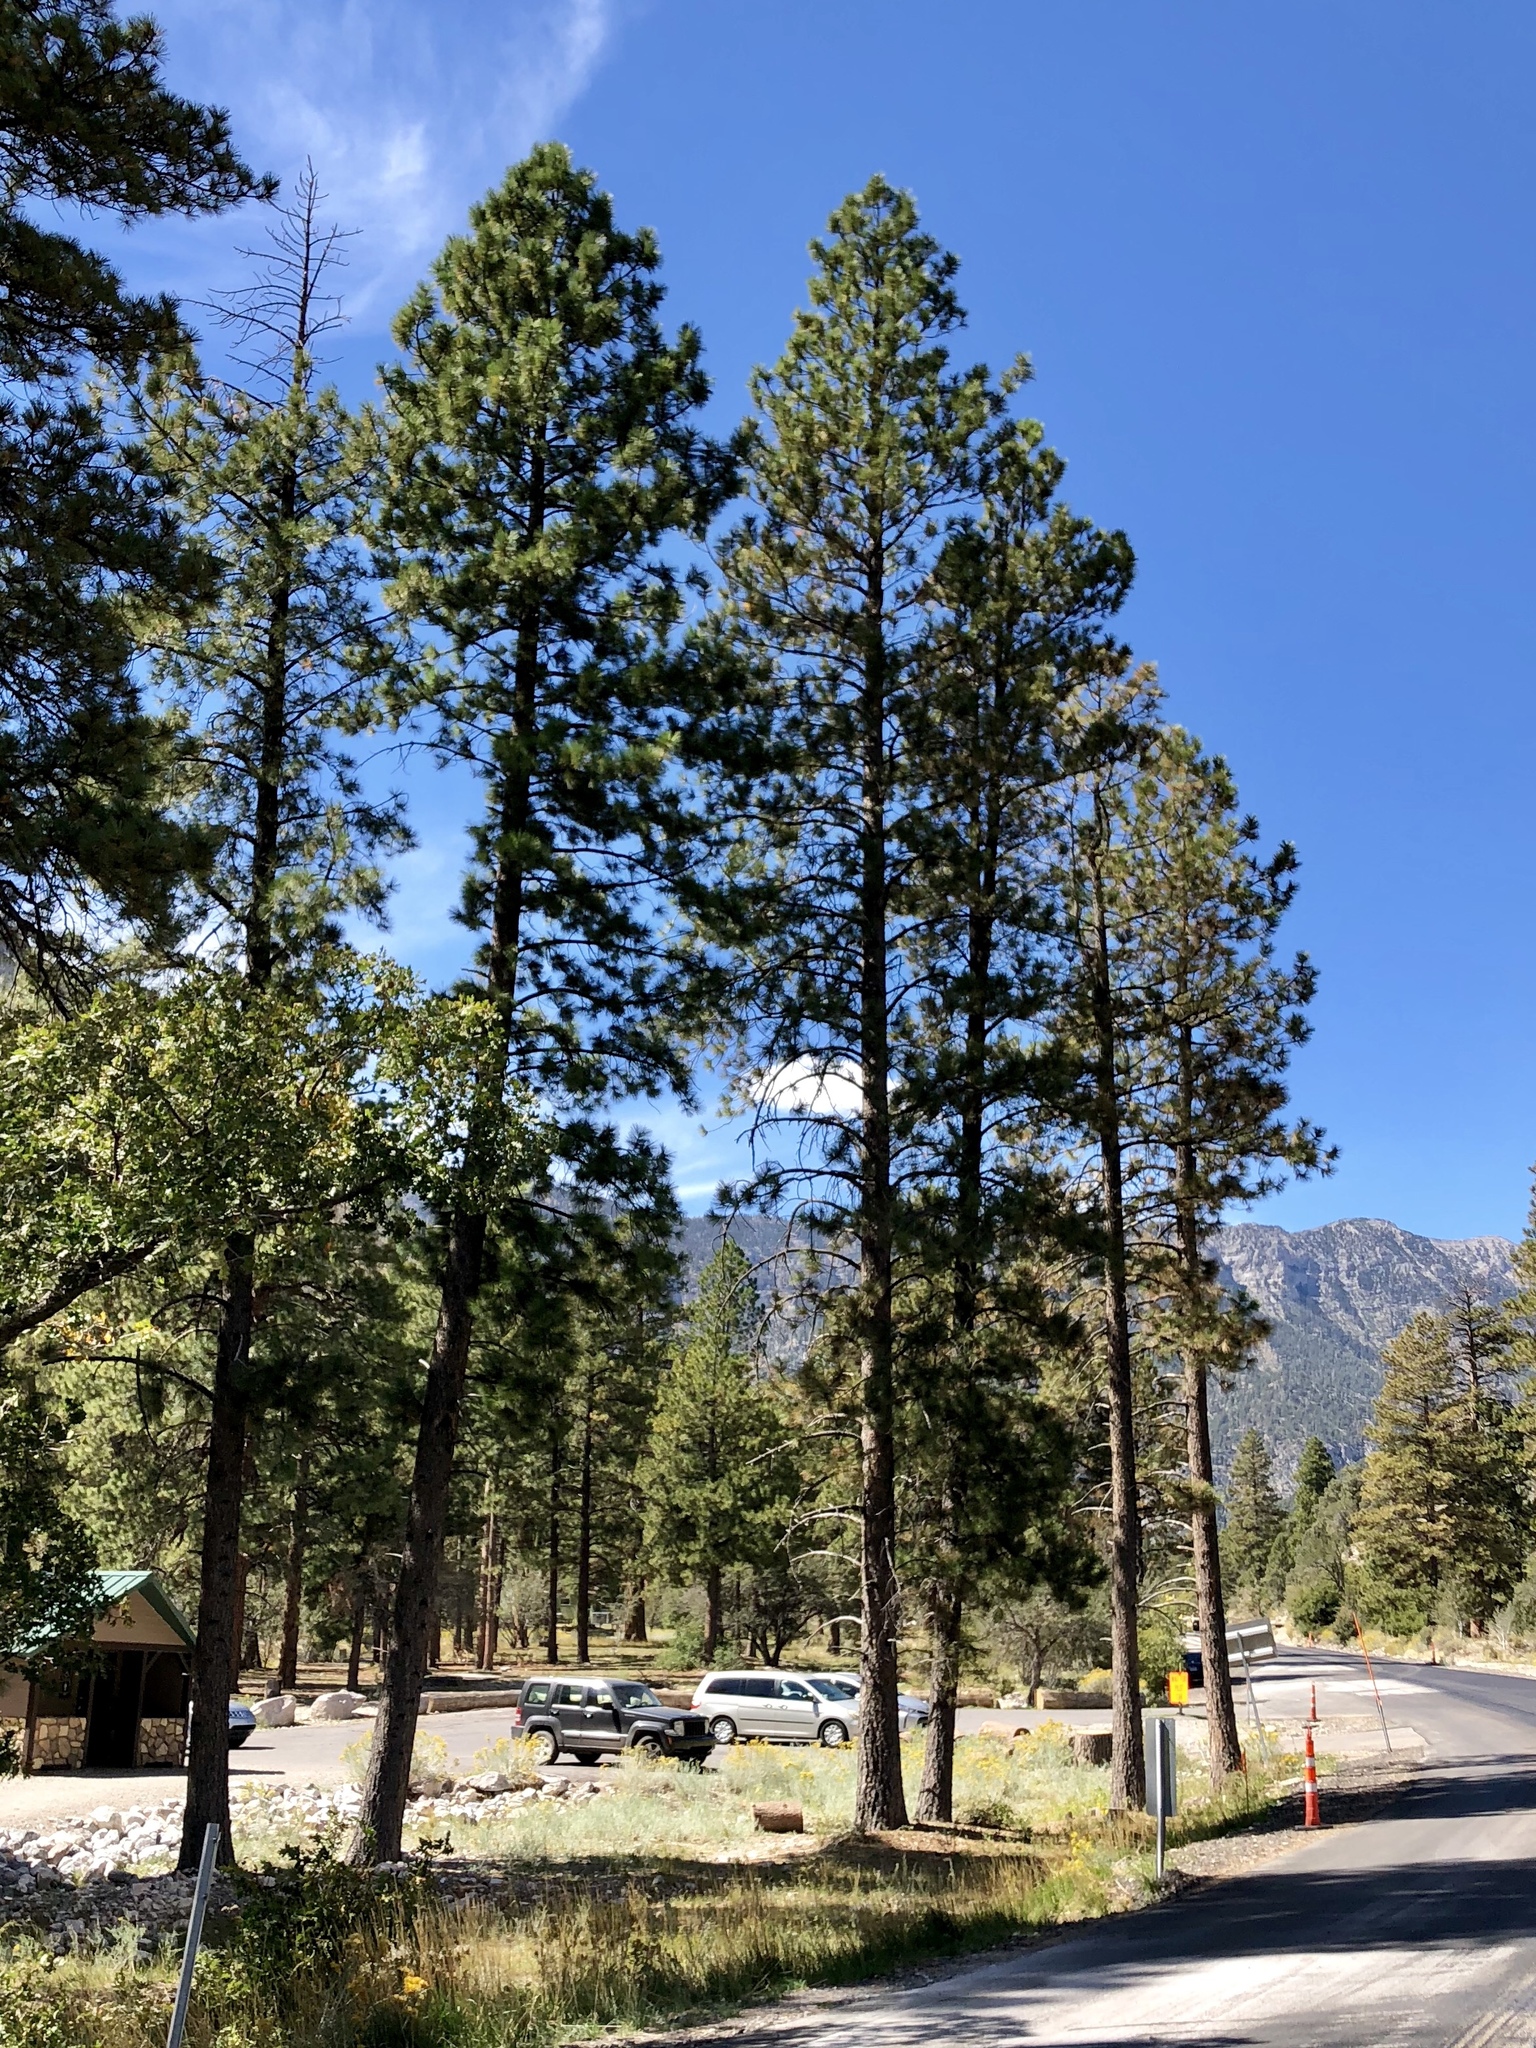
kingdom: Plantae
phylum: Tracheophyta
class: Pinopsida
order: Pinales
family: Pinaceae
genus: Pinus
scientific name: Pinus ponderosa
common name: Western yellow-pine
